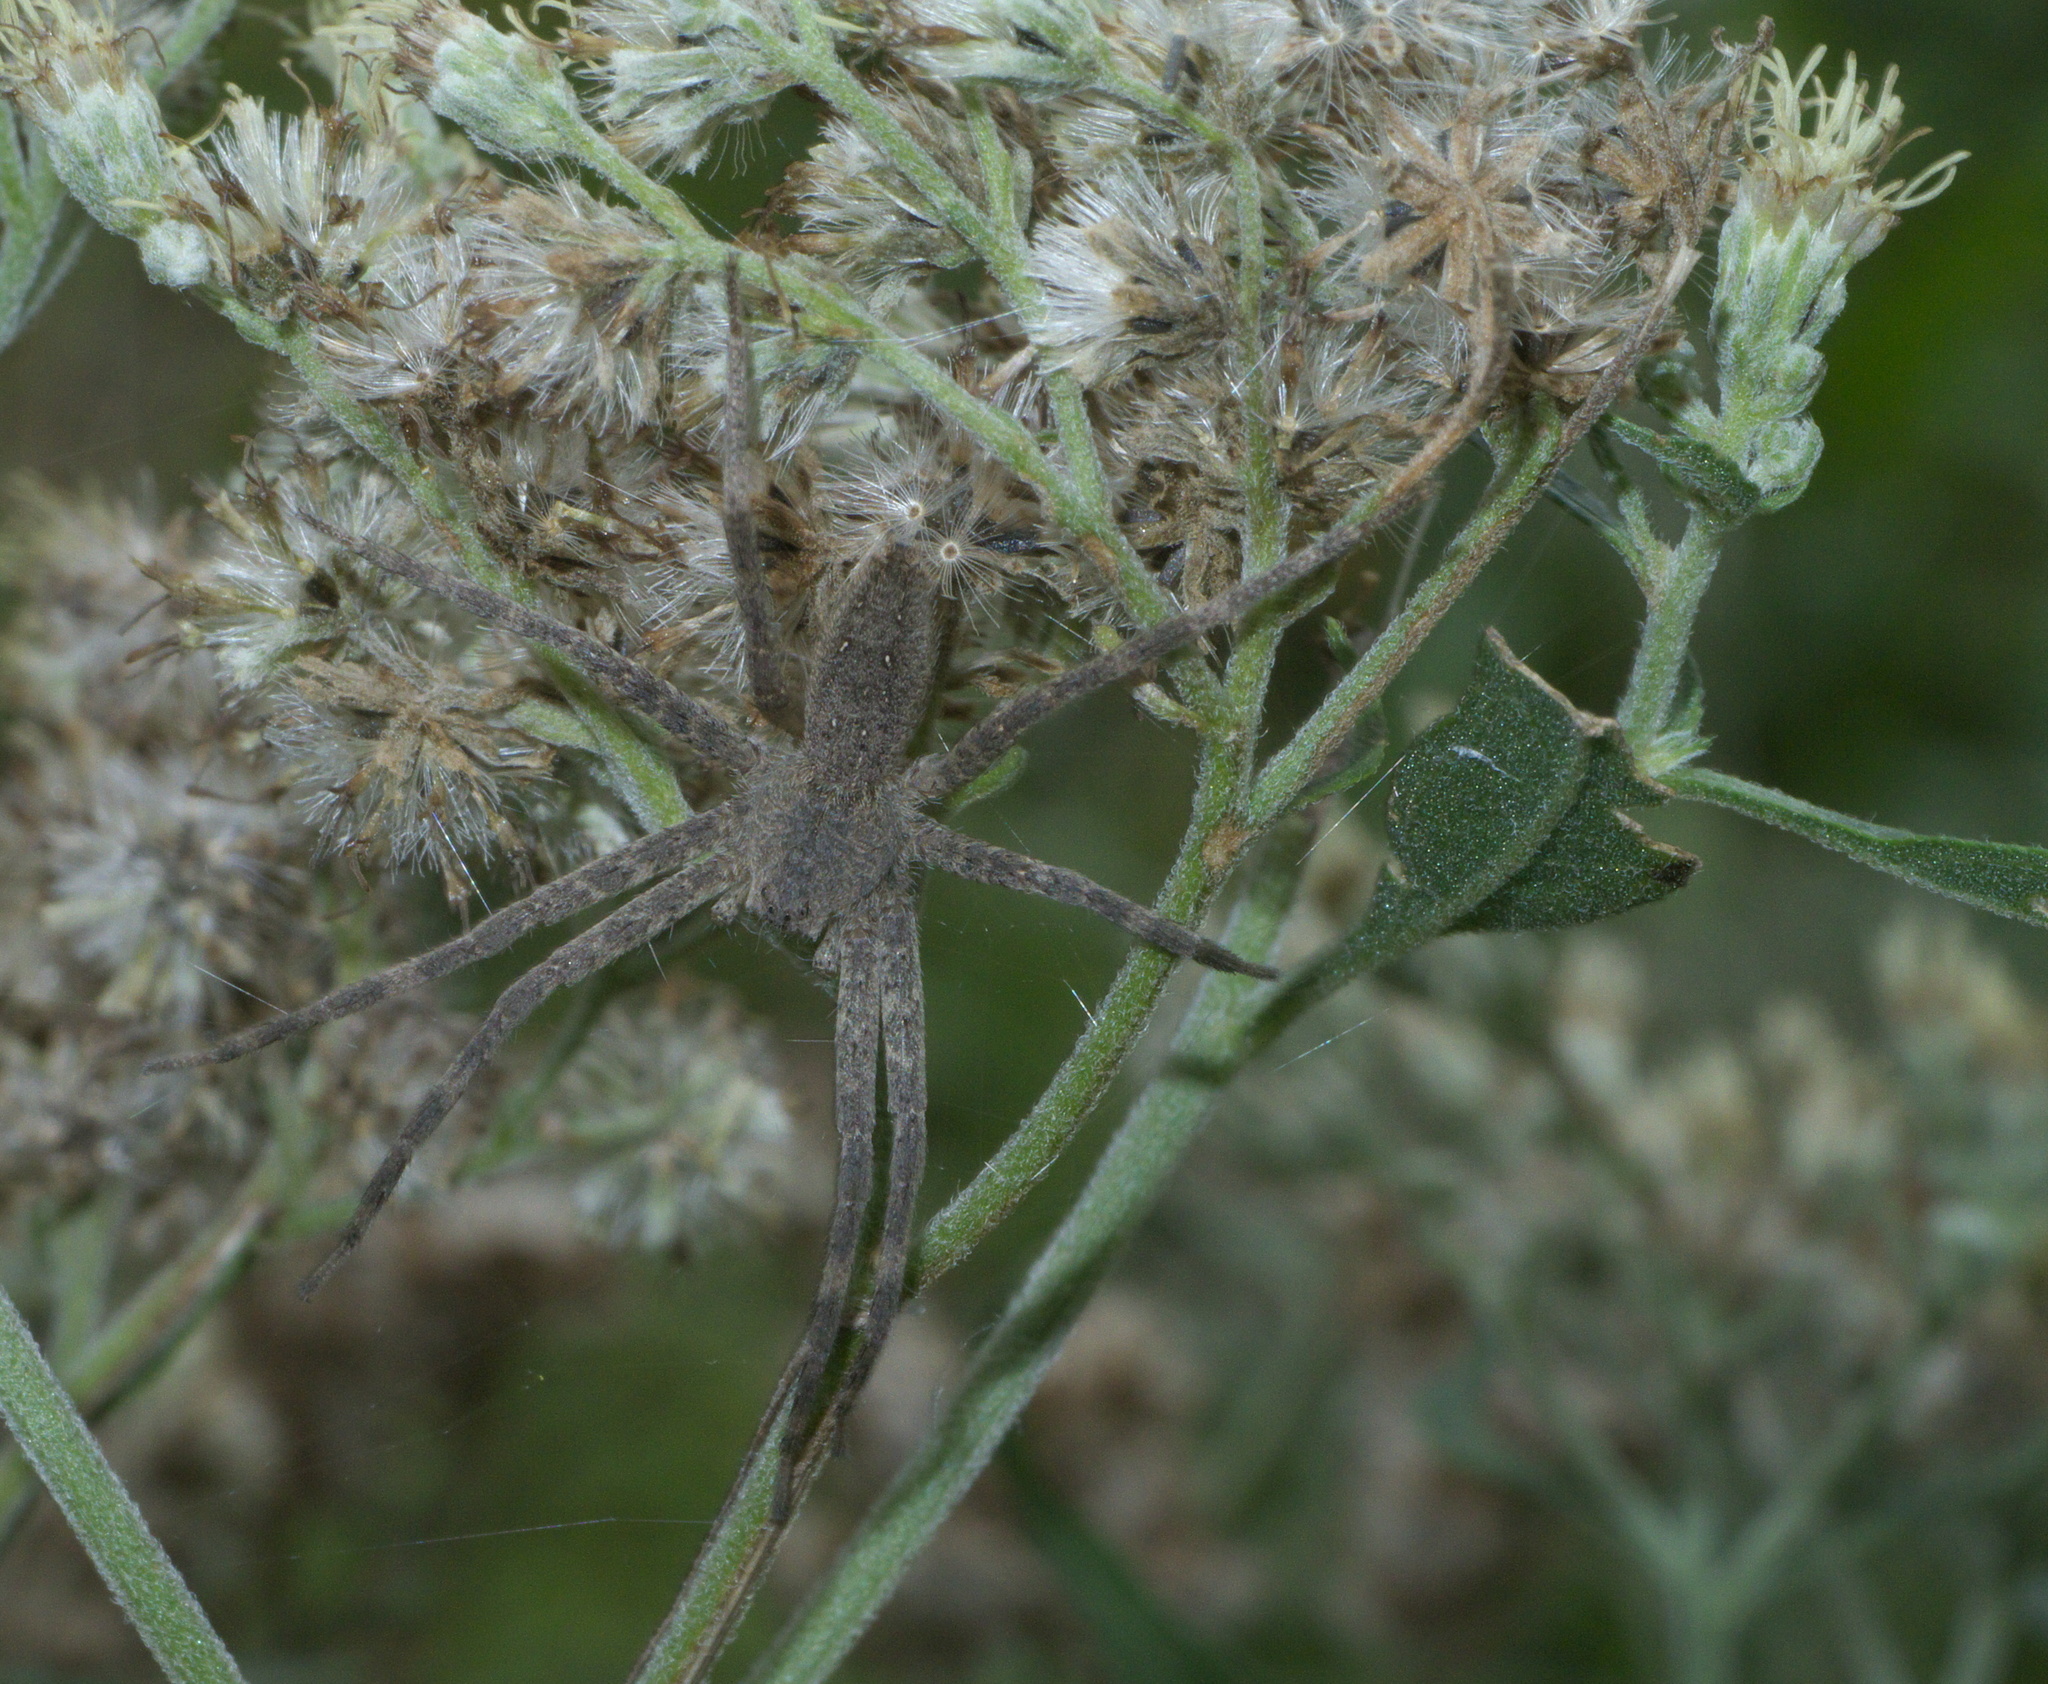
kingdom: Animalia
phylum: Arthropoda
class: Arachnida
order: Araneae
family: Pisauridae
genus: Pisaurina
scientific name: Pisaurina mira
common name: American nursery web spider
